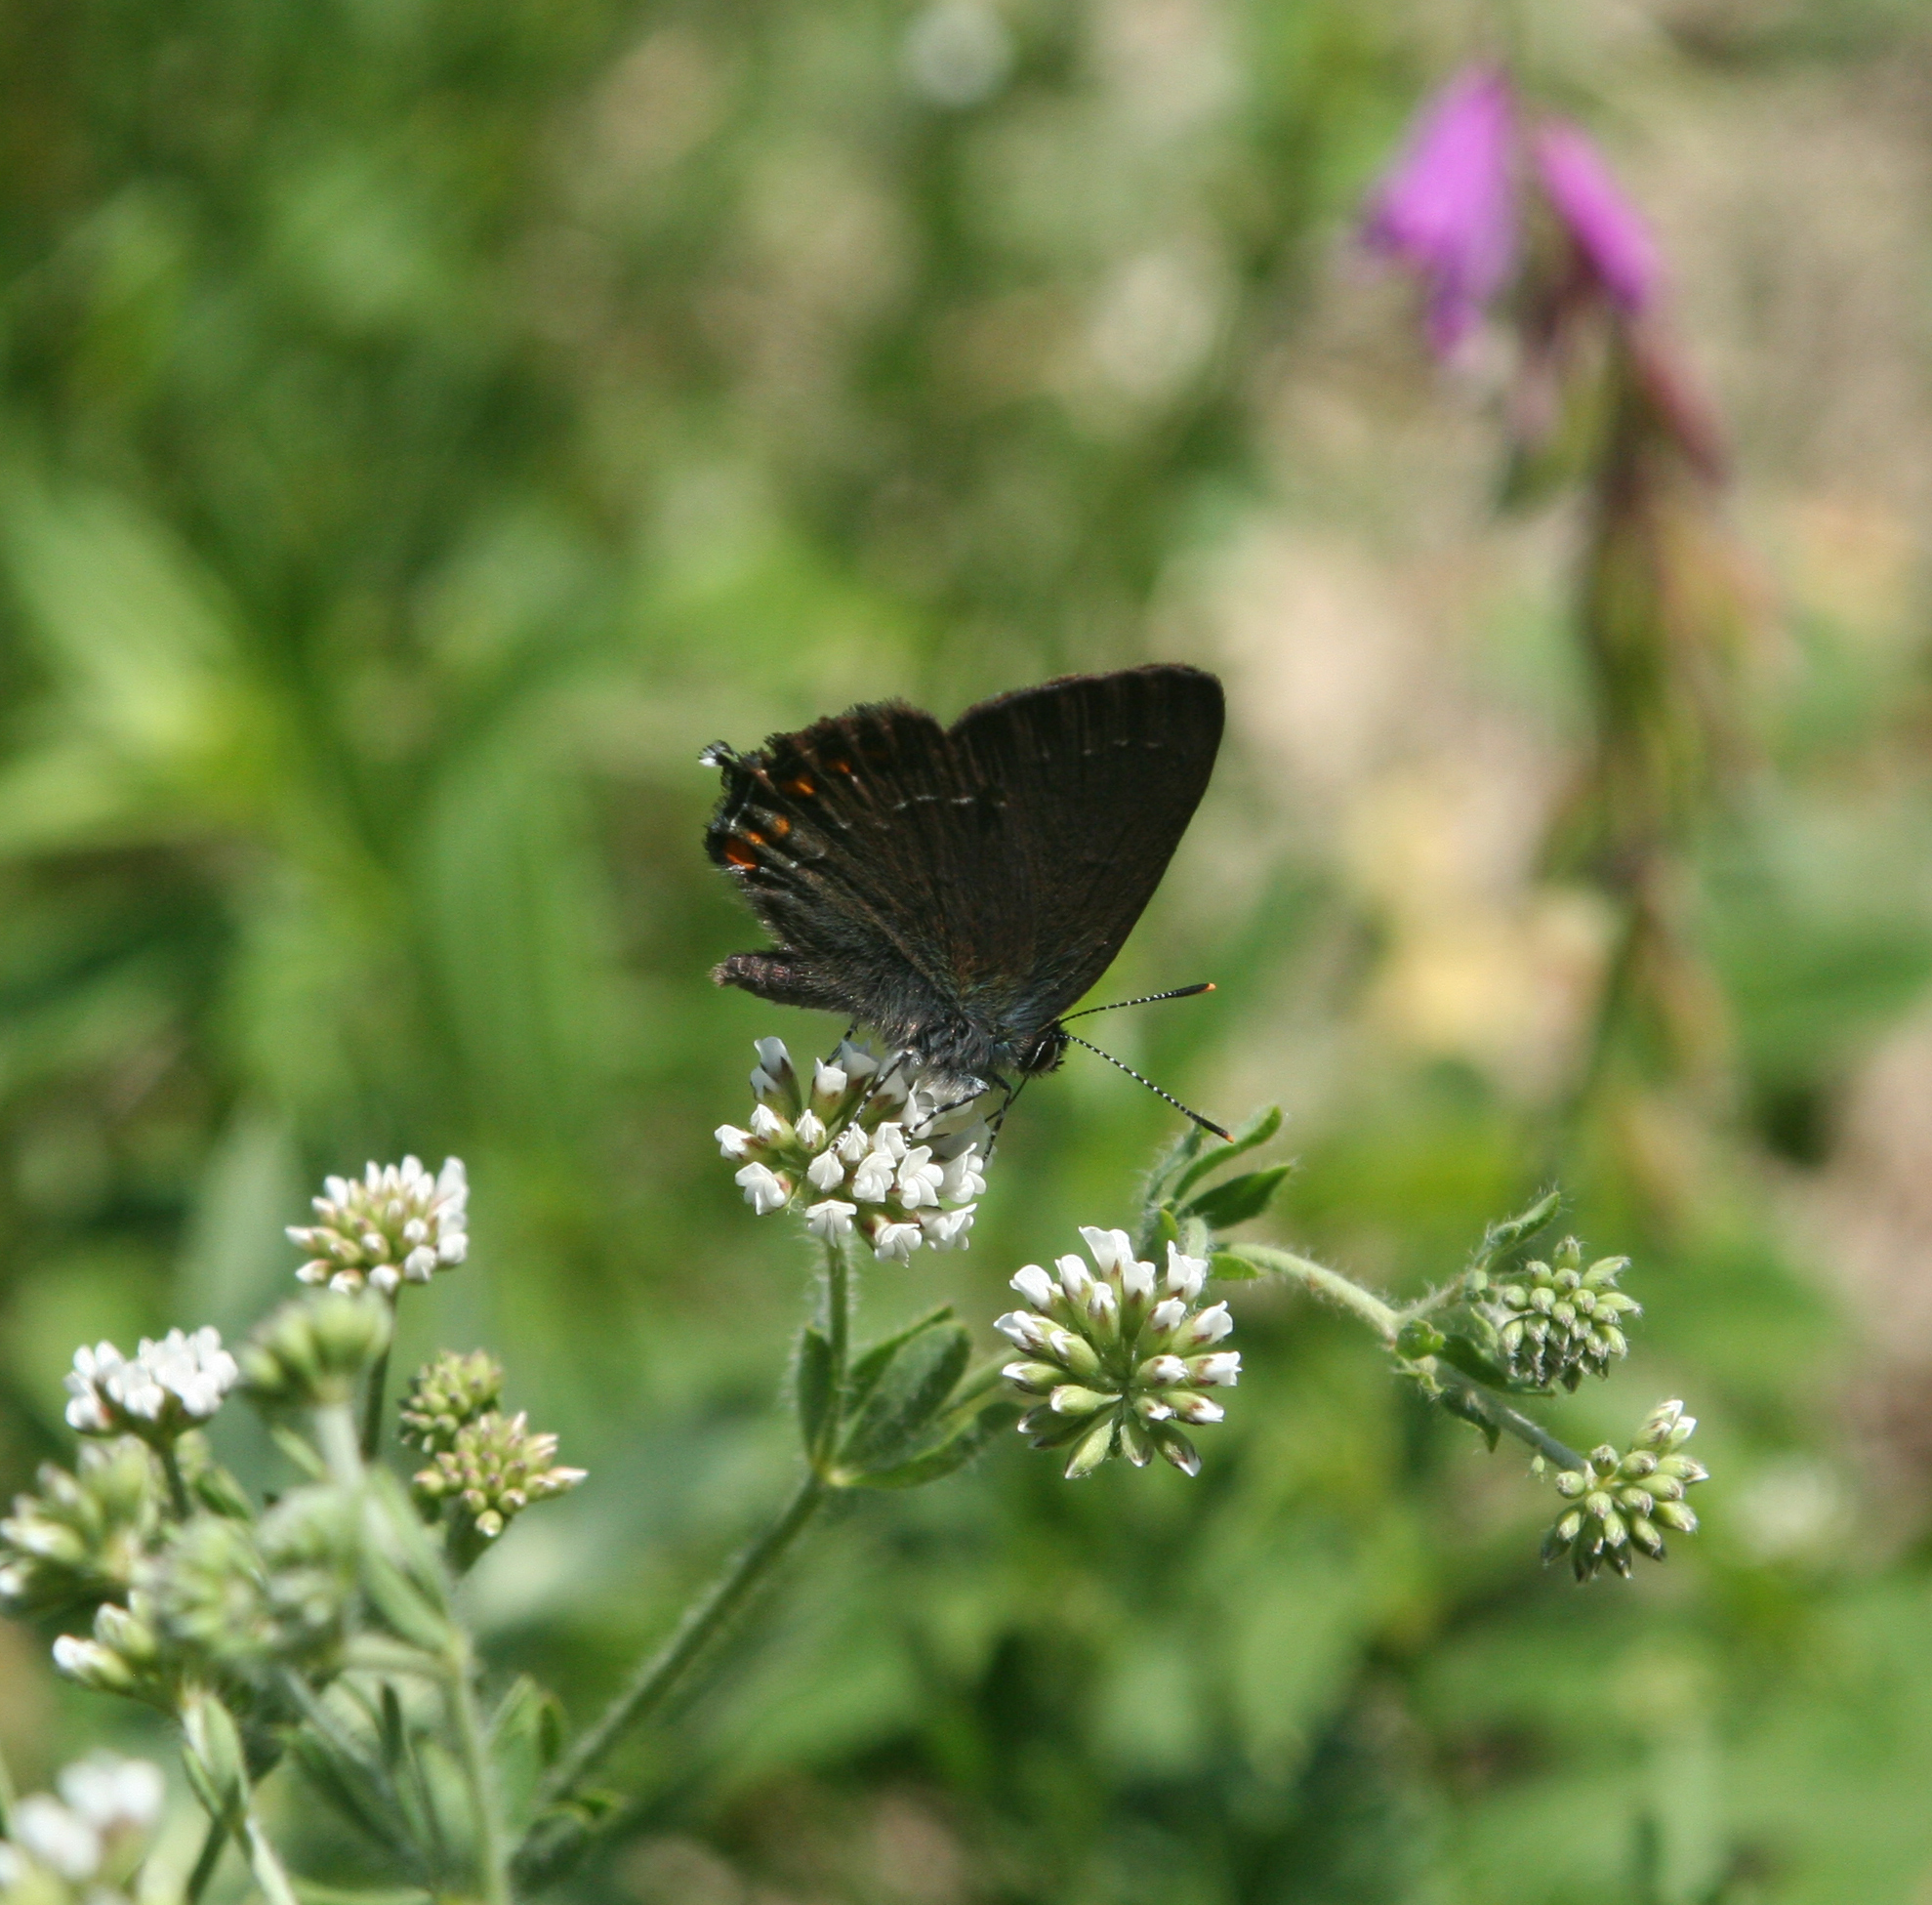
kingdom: Animalia
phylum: Arthropoda
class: Insecta
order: Lepidoptera
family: Lycaenidae
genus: Nordmannia
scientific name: Nordmannia ilicis
